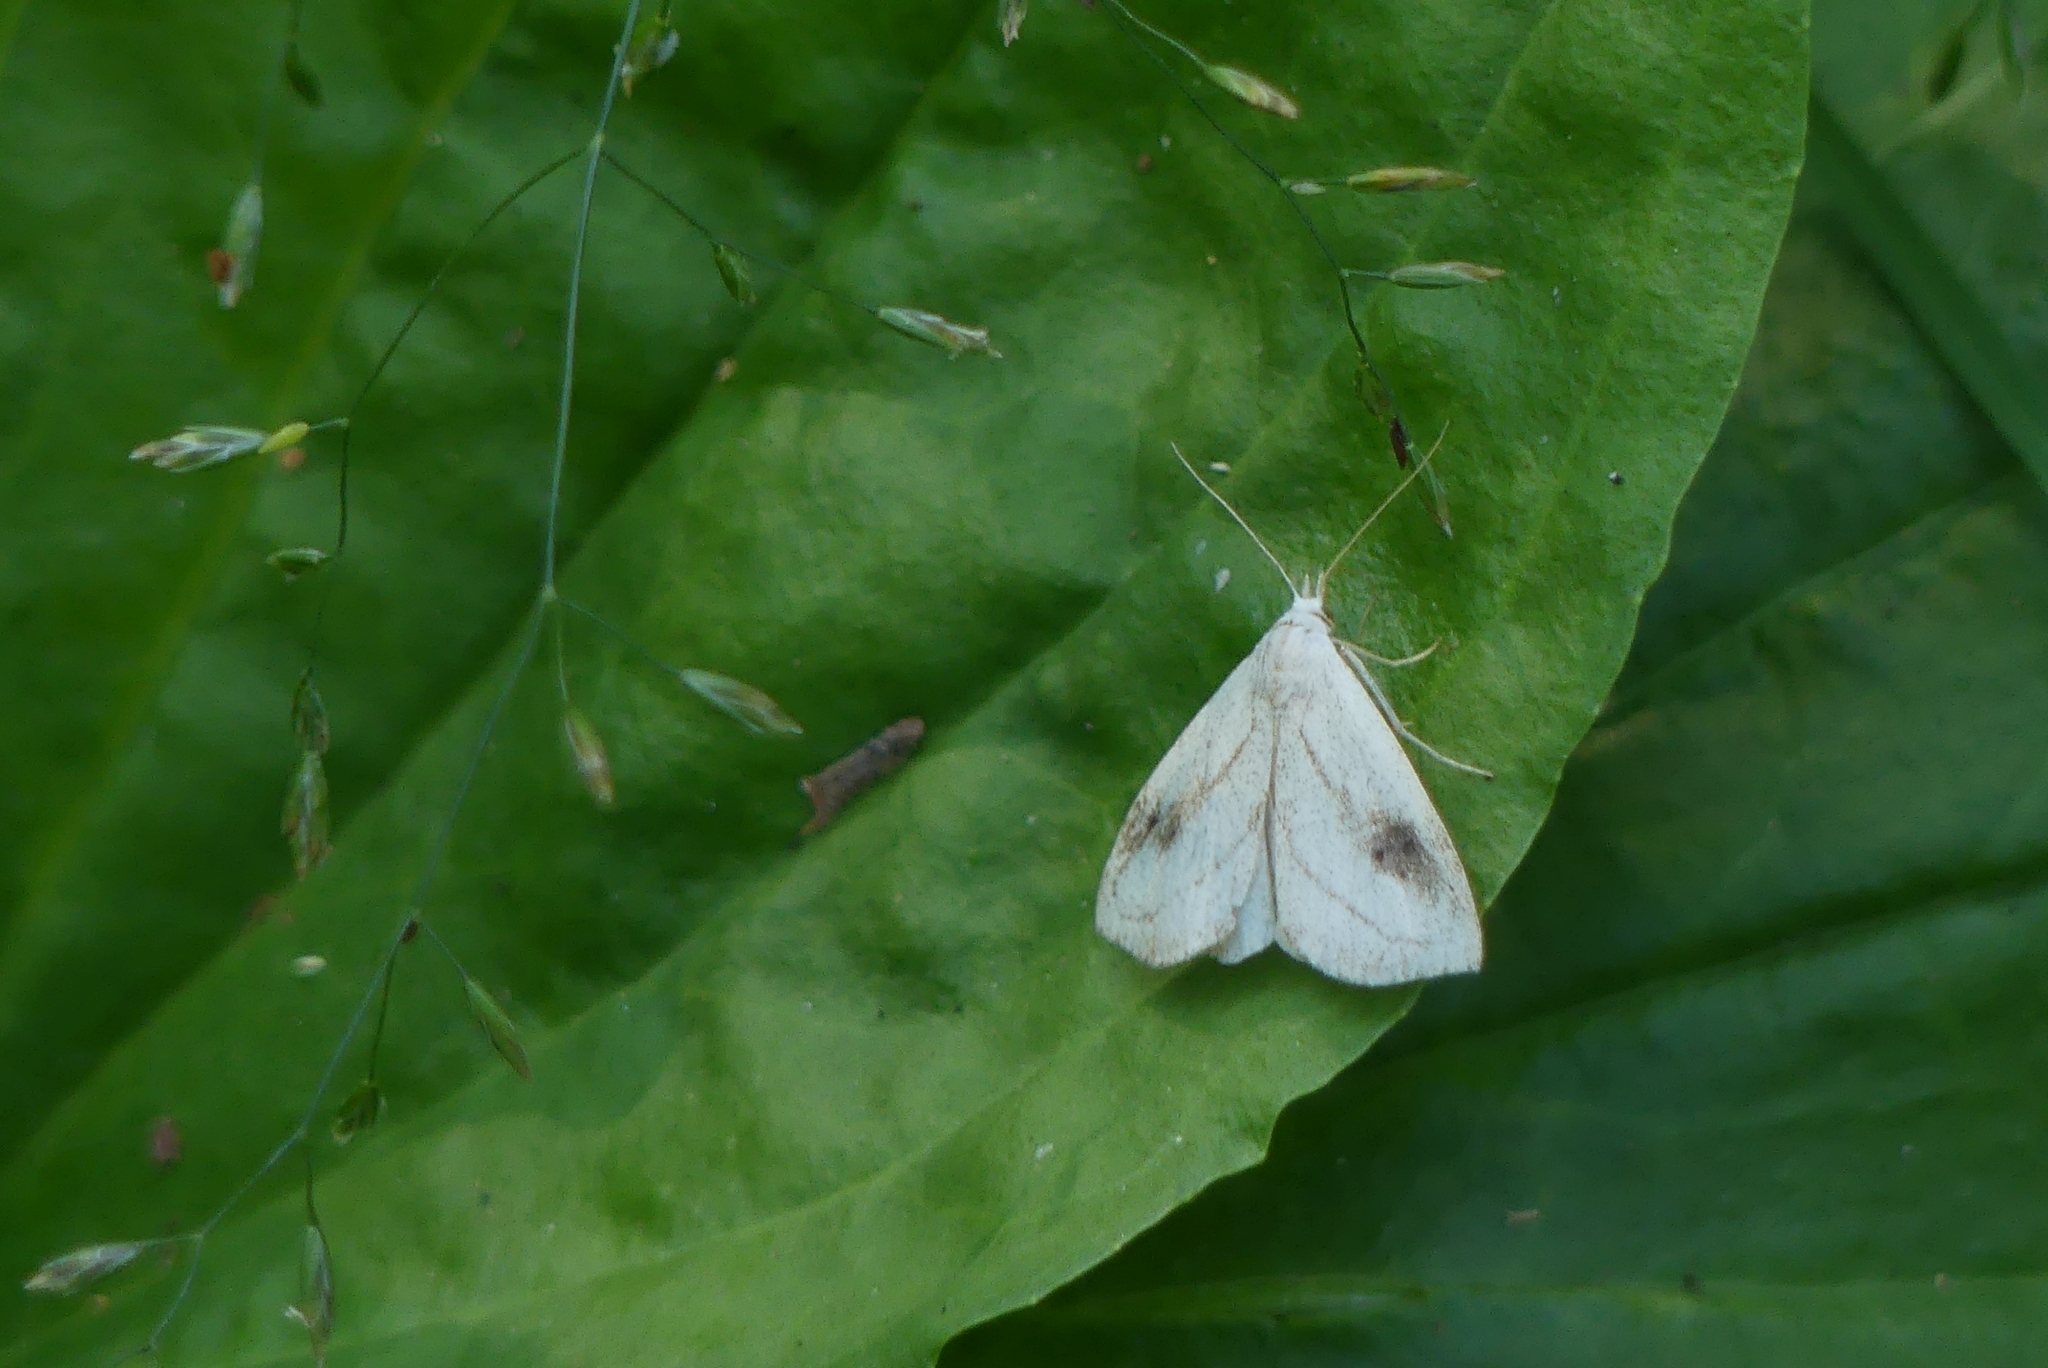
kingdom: Animalia
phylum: Arthropoda
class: Insecta
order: Lepidoptera
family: Erebidae
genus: Rivula
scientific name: Rivula propinqualis
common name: Spotted grass moth
